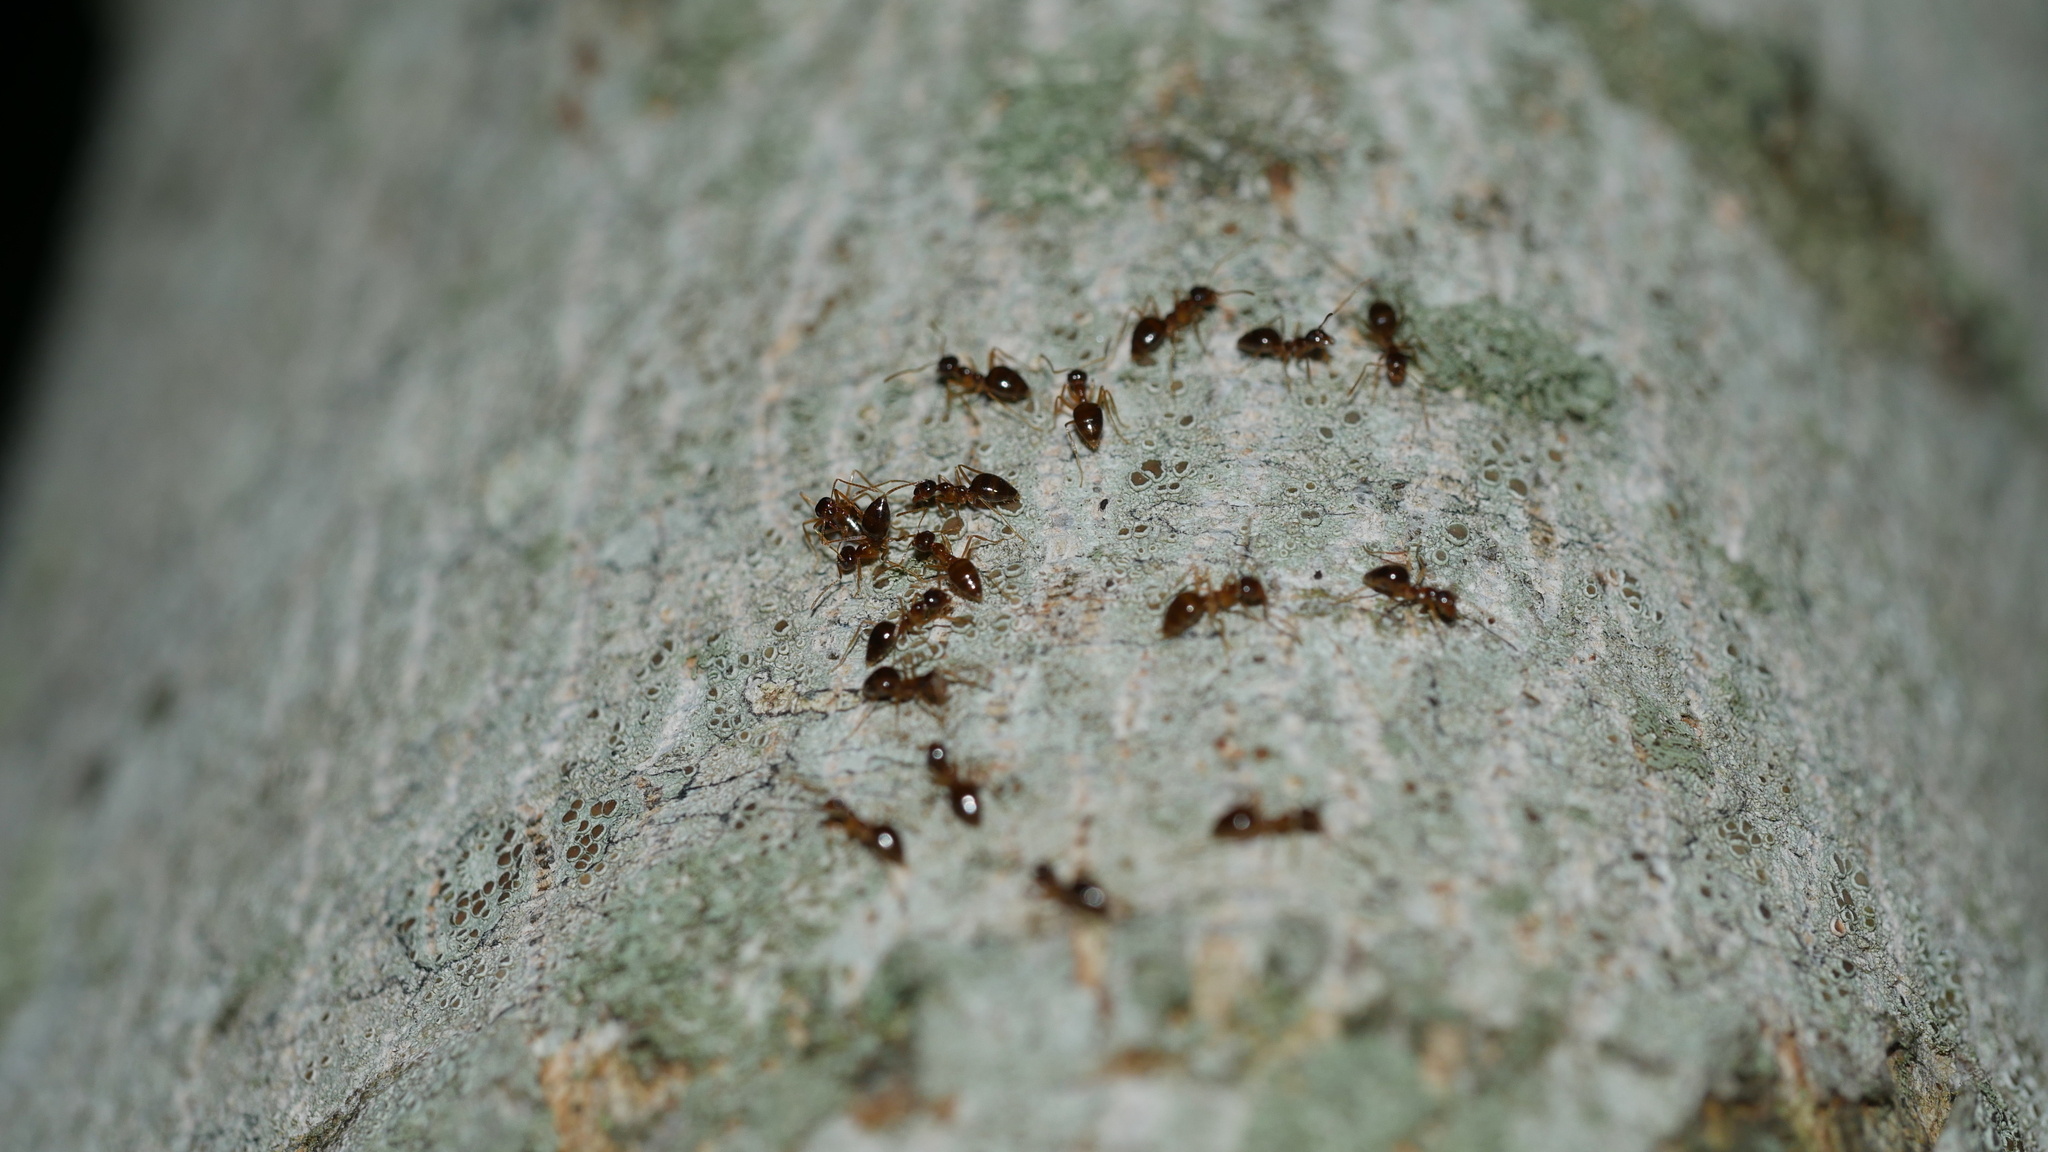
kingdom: Animalia
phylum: Arthropoda
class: Insecta
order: Hymenoptera
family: Formicidae
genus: Prenolepis
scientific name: Prenolepis imparis
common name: Small honey ant
